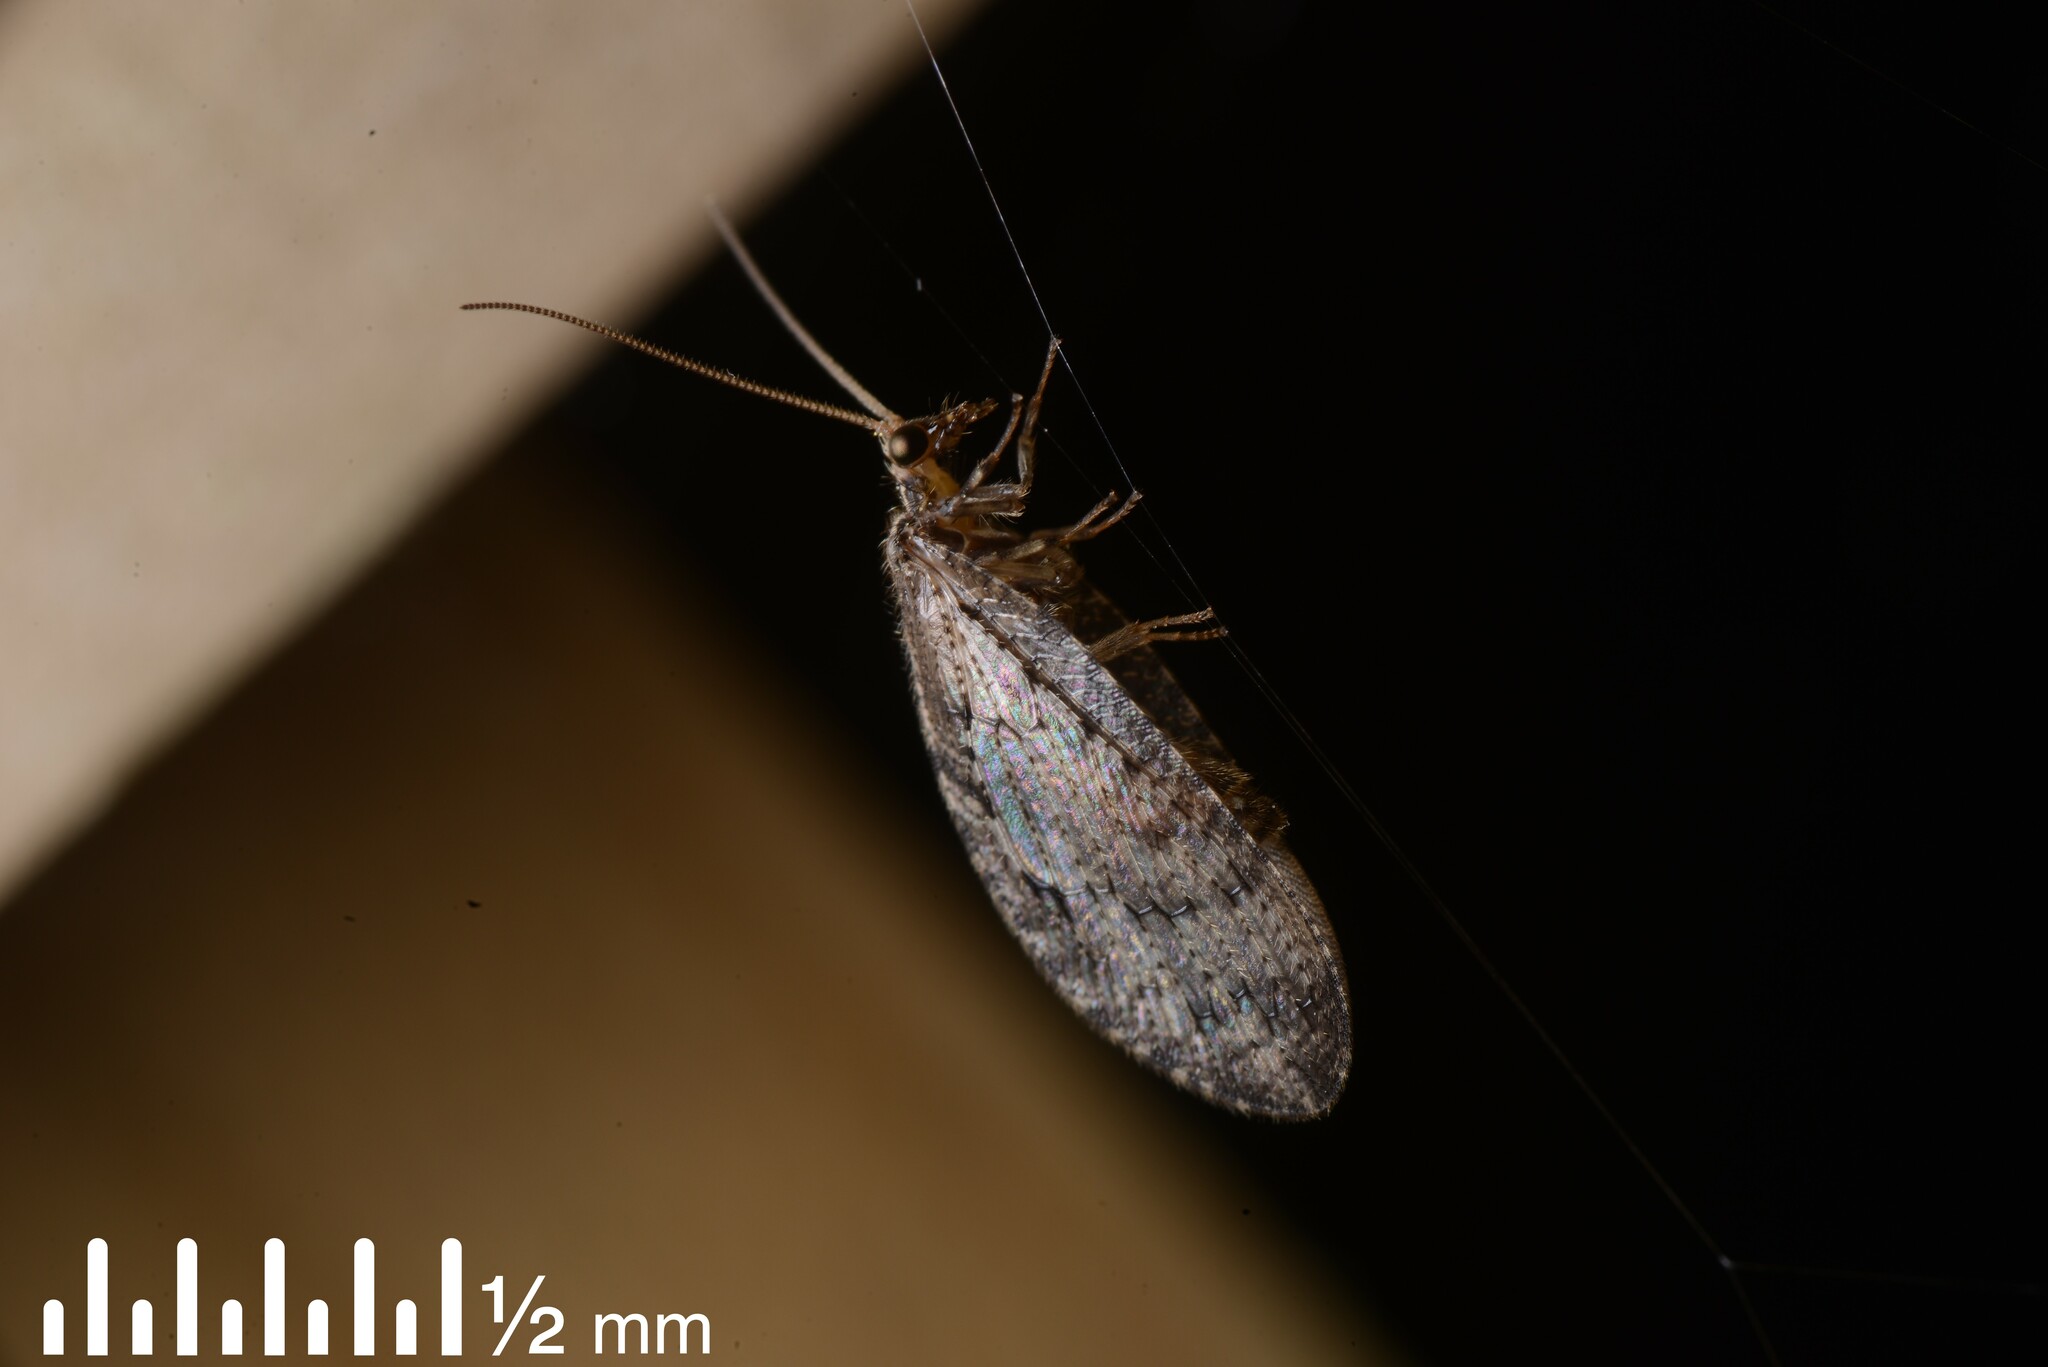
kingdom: Animalia
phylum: Arthropoda
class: Insecta
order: Neuroptera
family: Hemerobiidae
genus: Wesmaelius
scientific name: Wesmaelius subnebulosus
